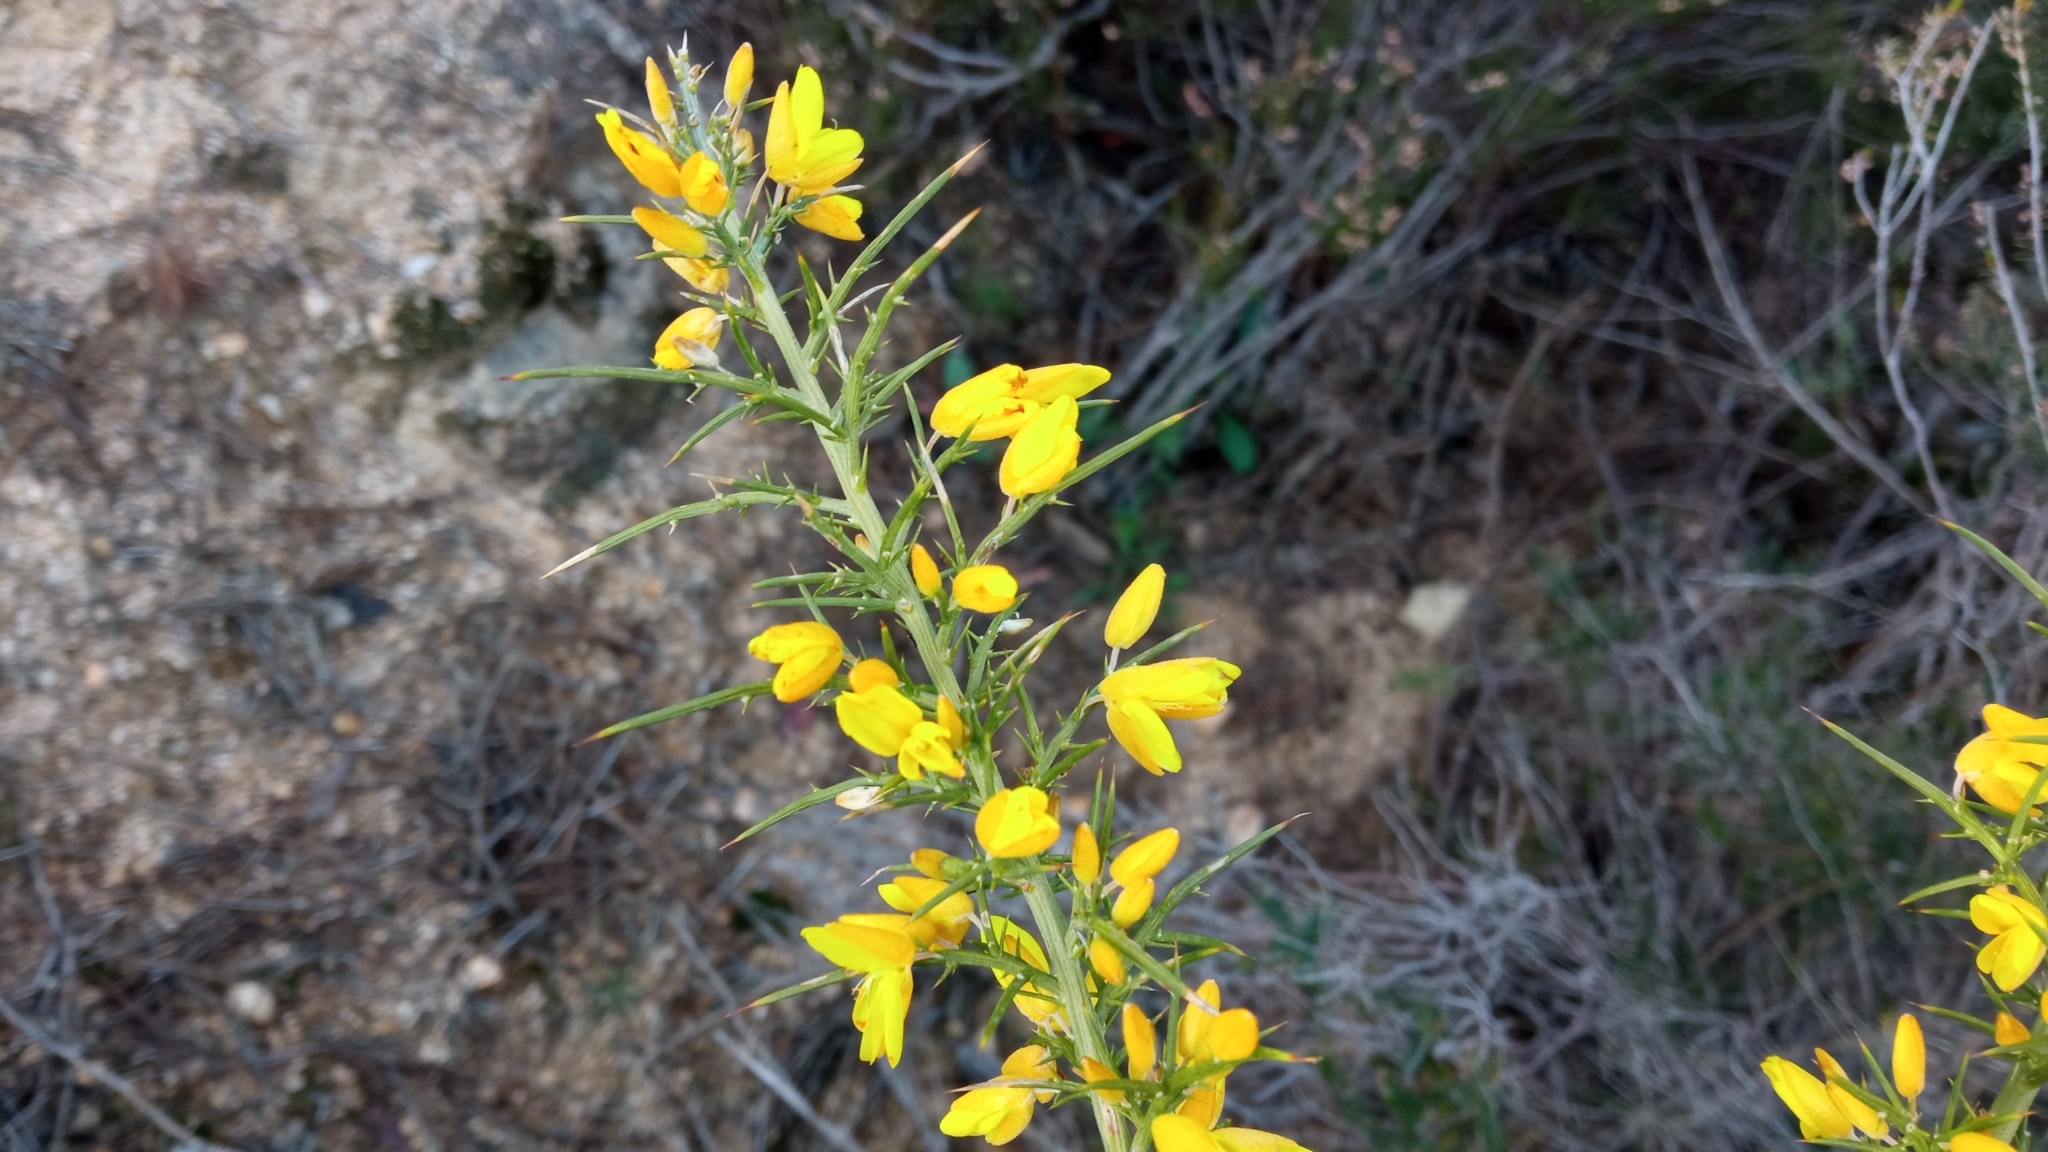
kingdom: Plantae
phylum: Tracheophyta
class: Magnoliopsida
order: Fabales
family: Fabaceae
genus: Ulex
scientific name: Ulex parviflorus
